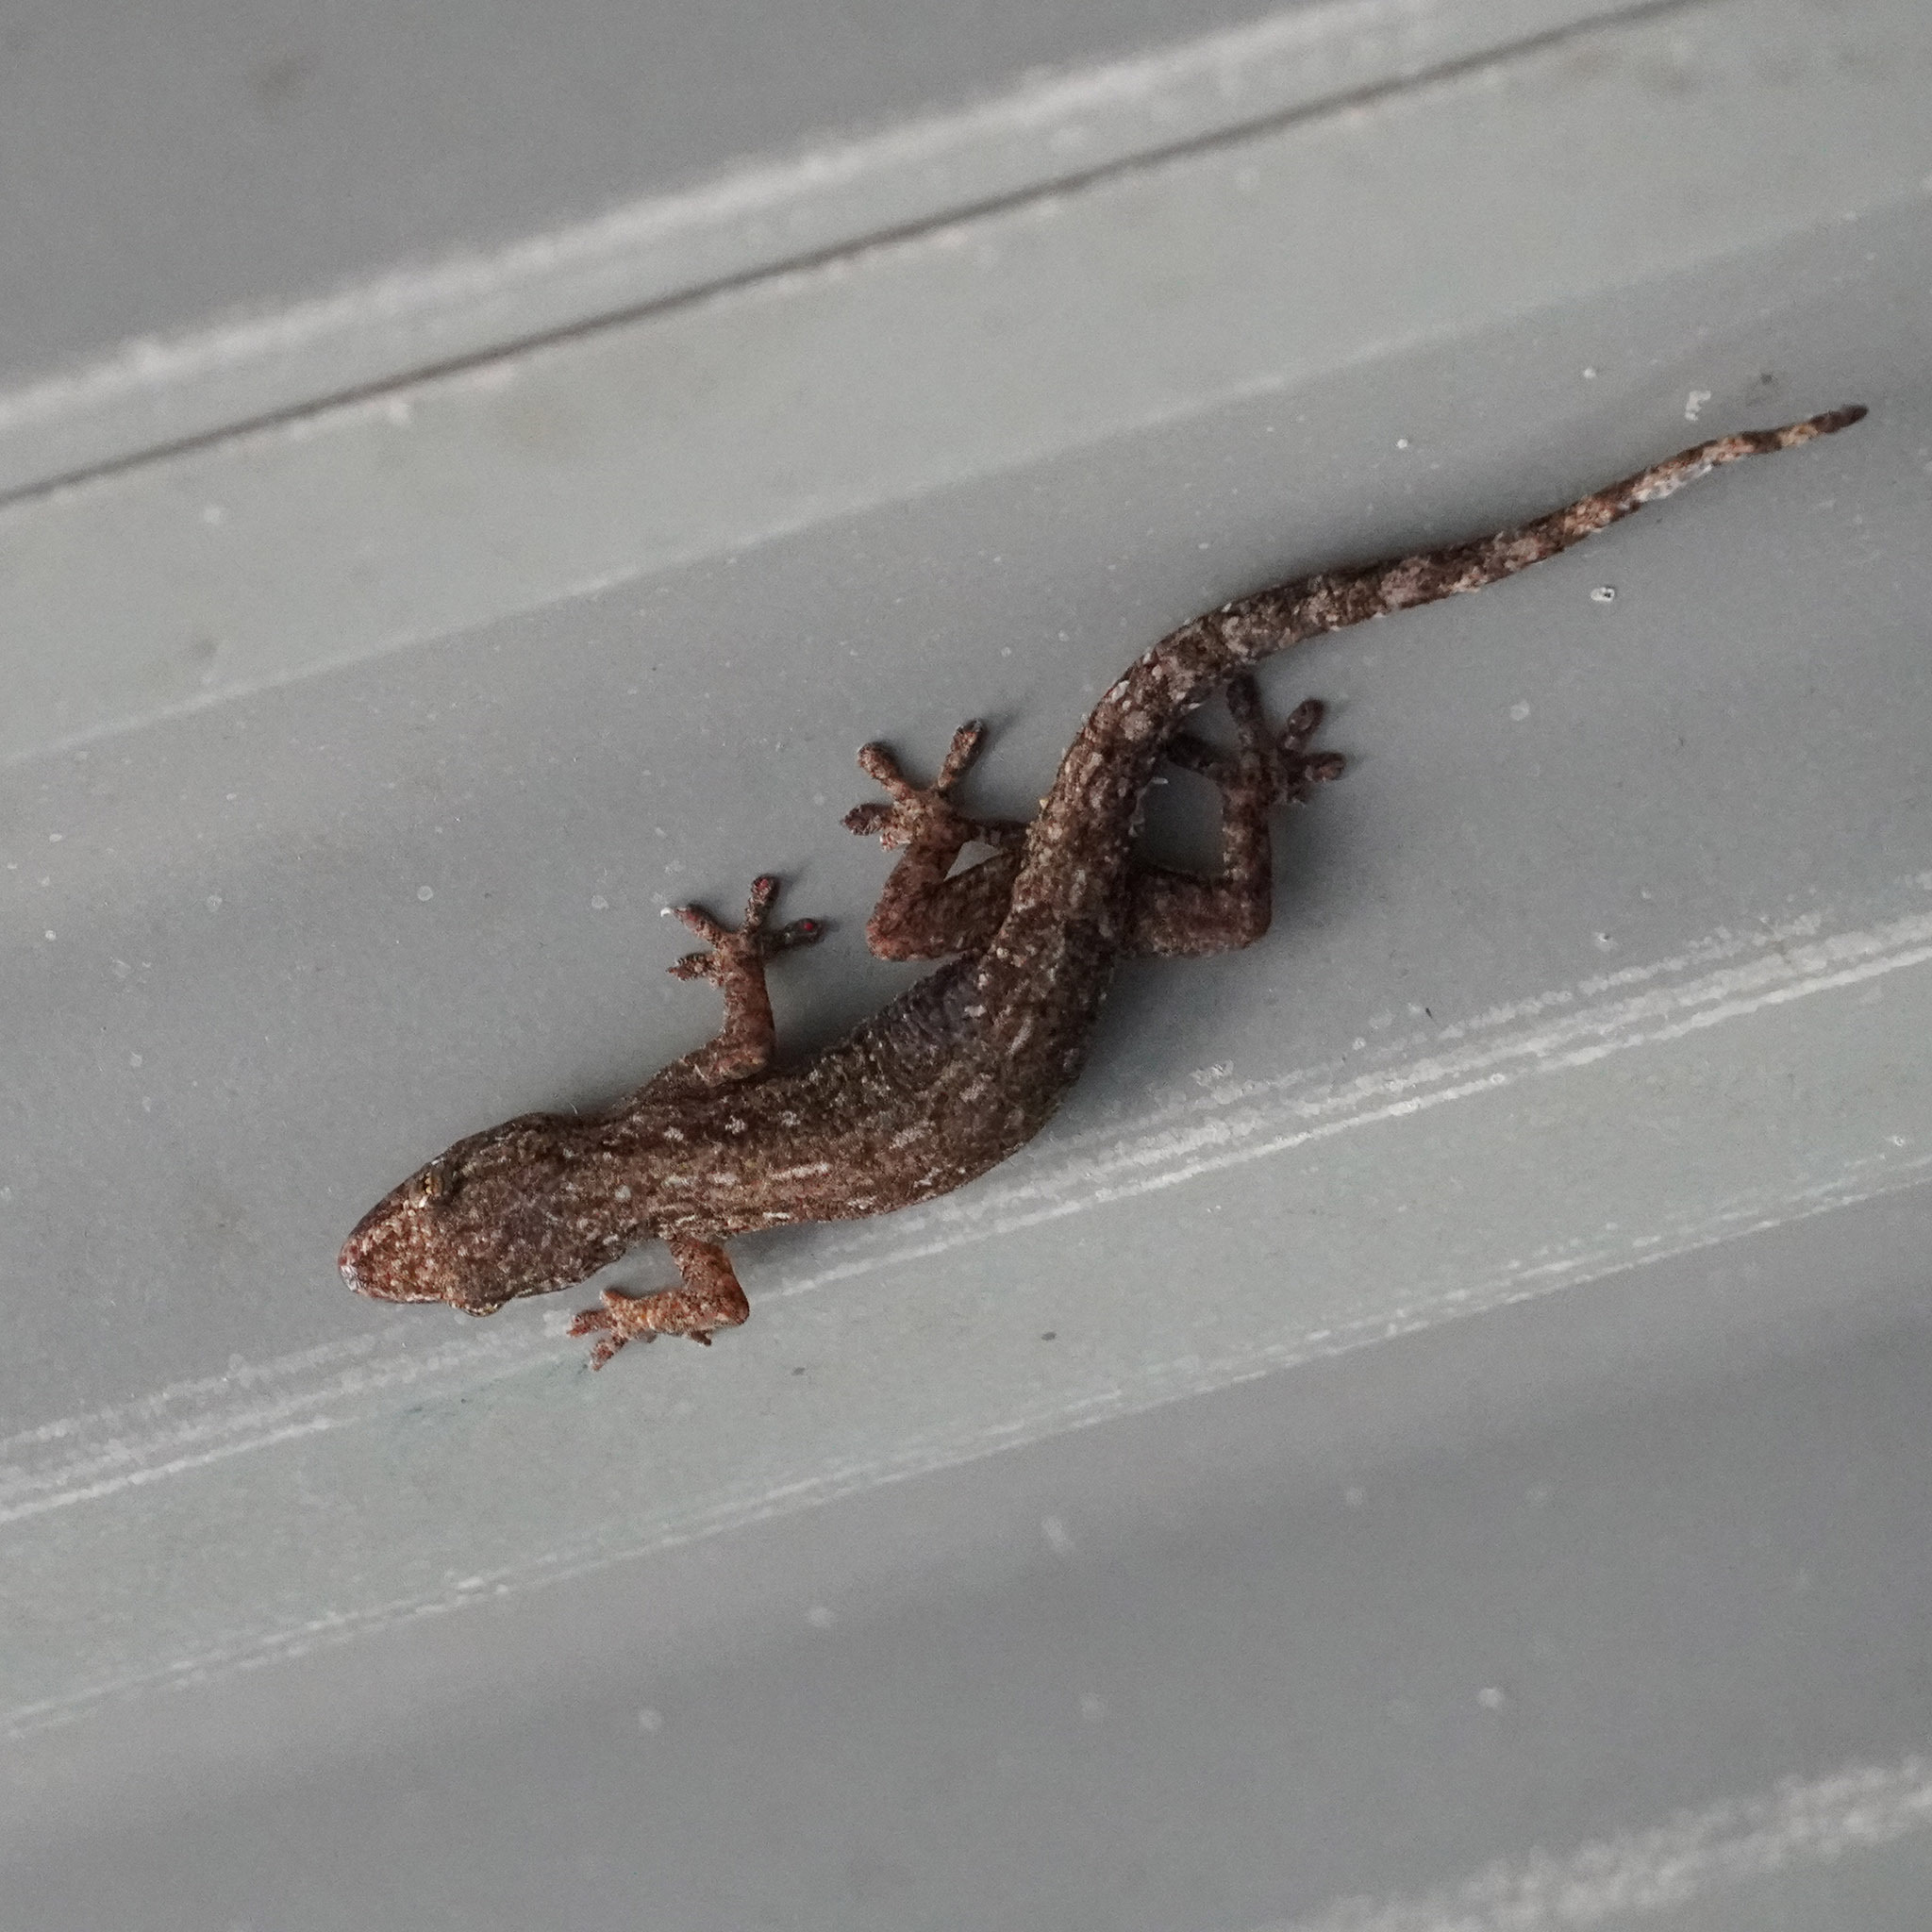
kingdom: Animalia
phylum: Chordata
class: Squamata
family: Gekkonidae
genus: Hemidactylus
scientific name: Hemidactylus frenatus
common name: Common house gecko
